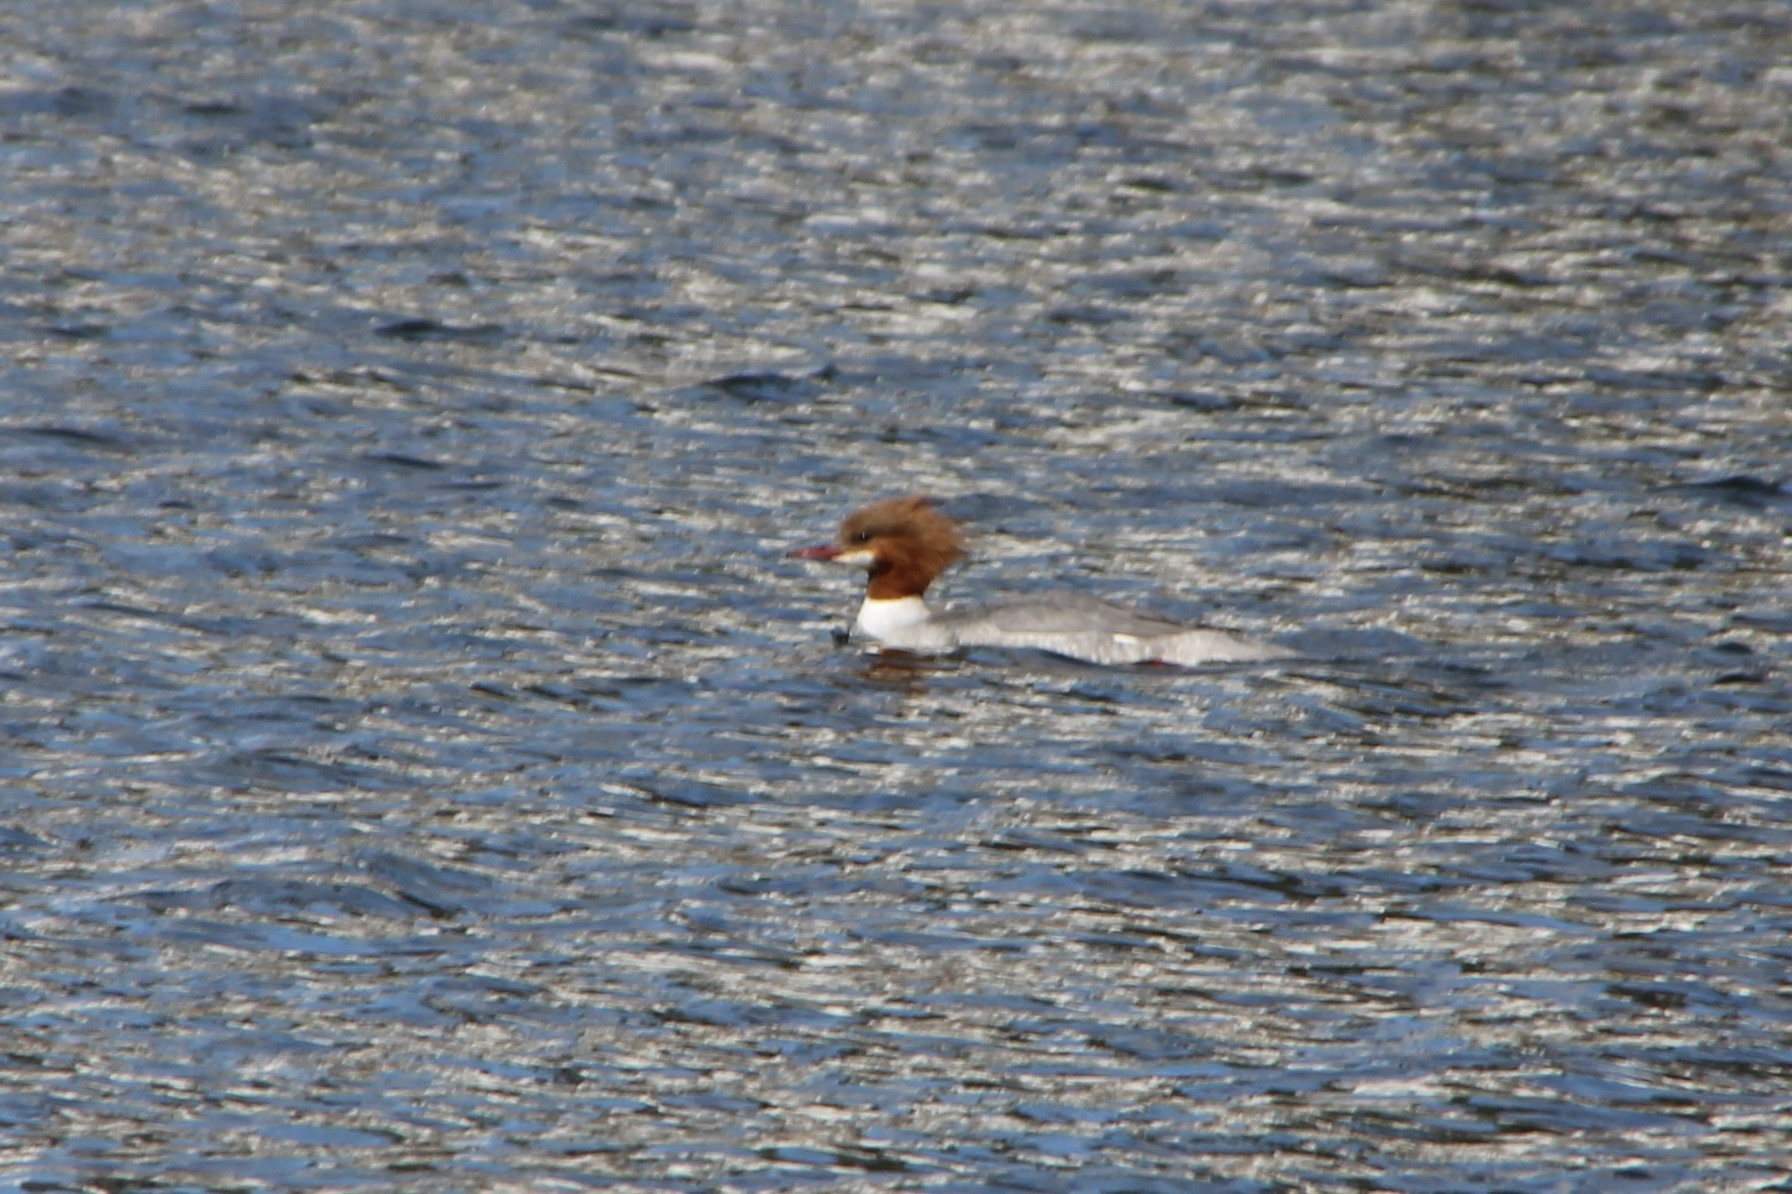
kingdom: Animalia
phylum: Chordata
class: Aves
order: Anseriformes
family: Anatidae
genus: Mergus
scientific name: Mergus merganser
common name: Common merganser
